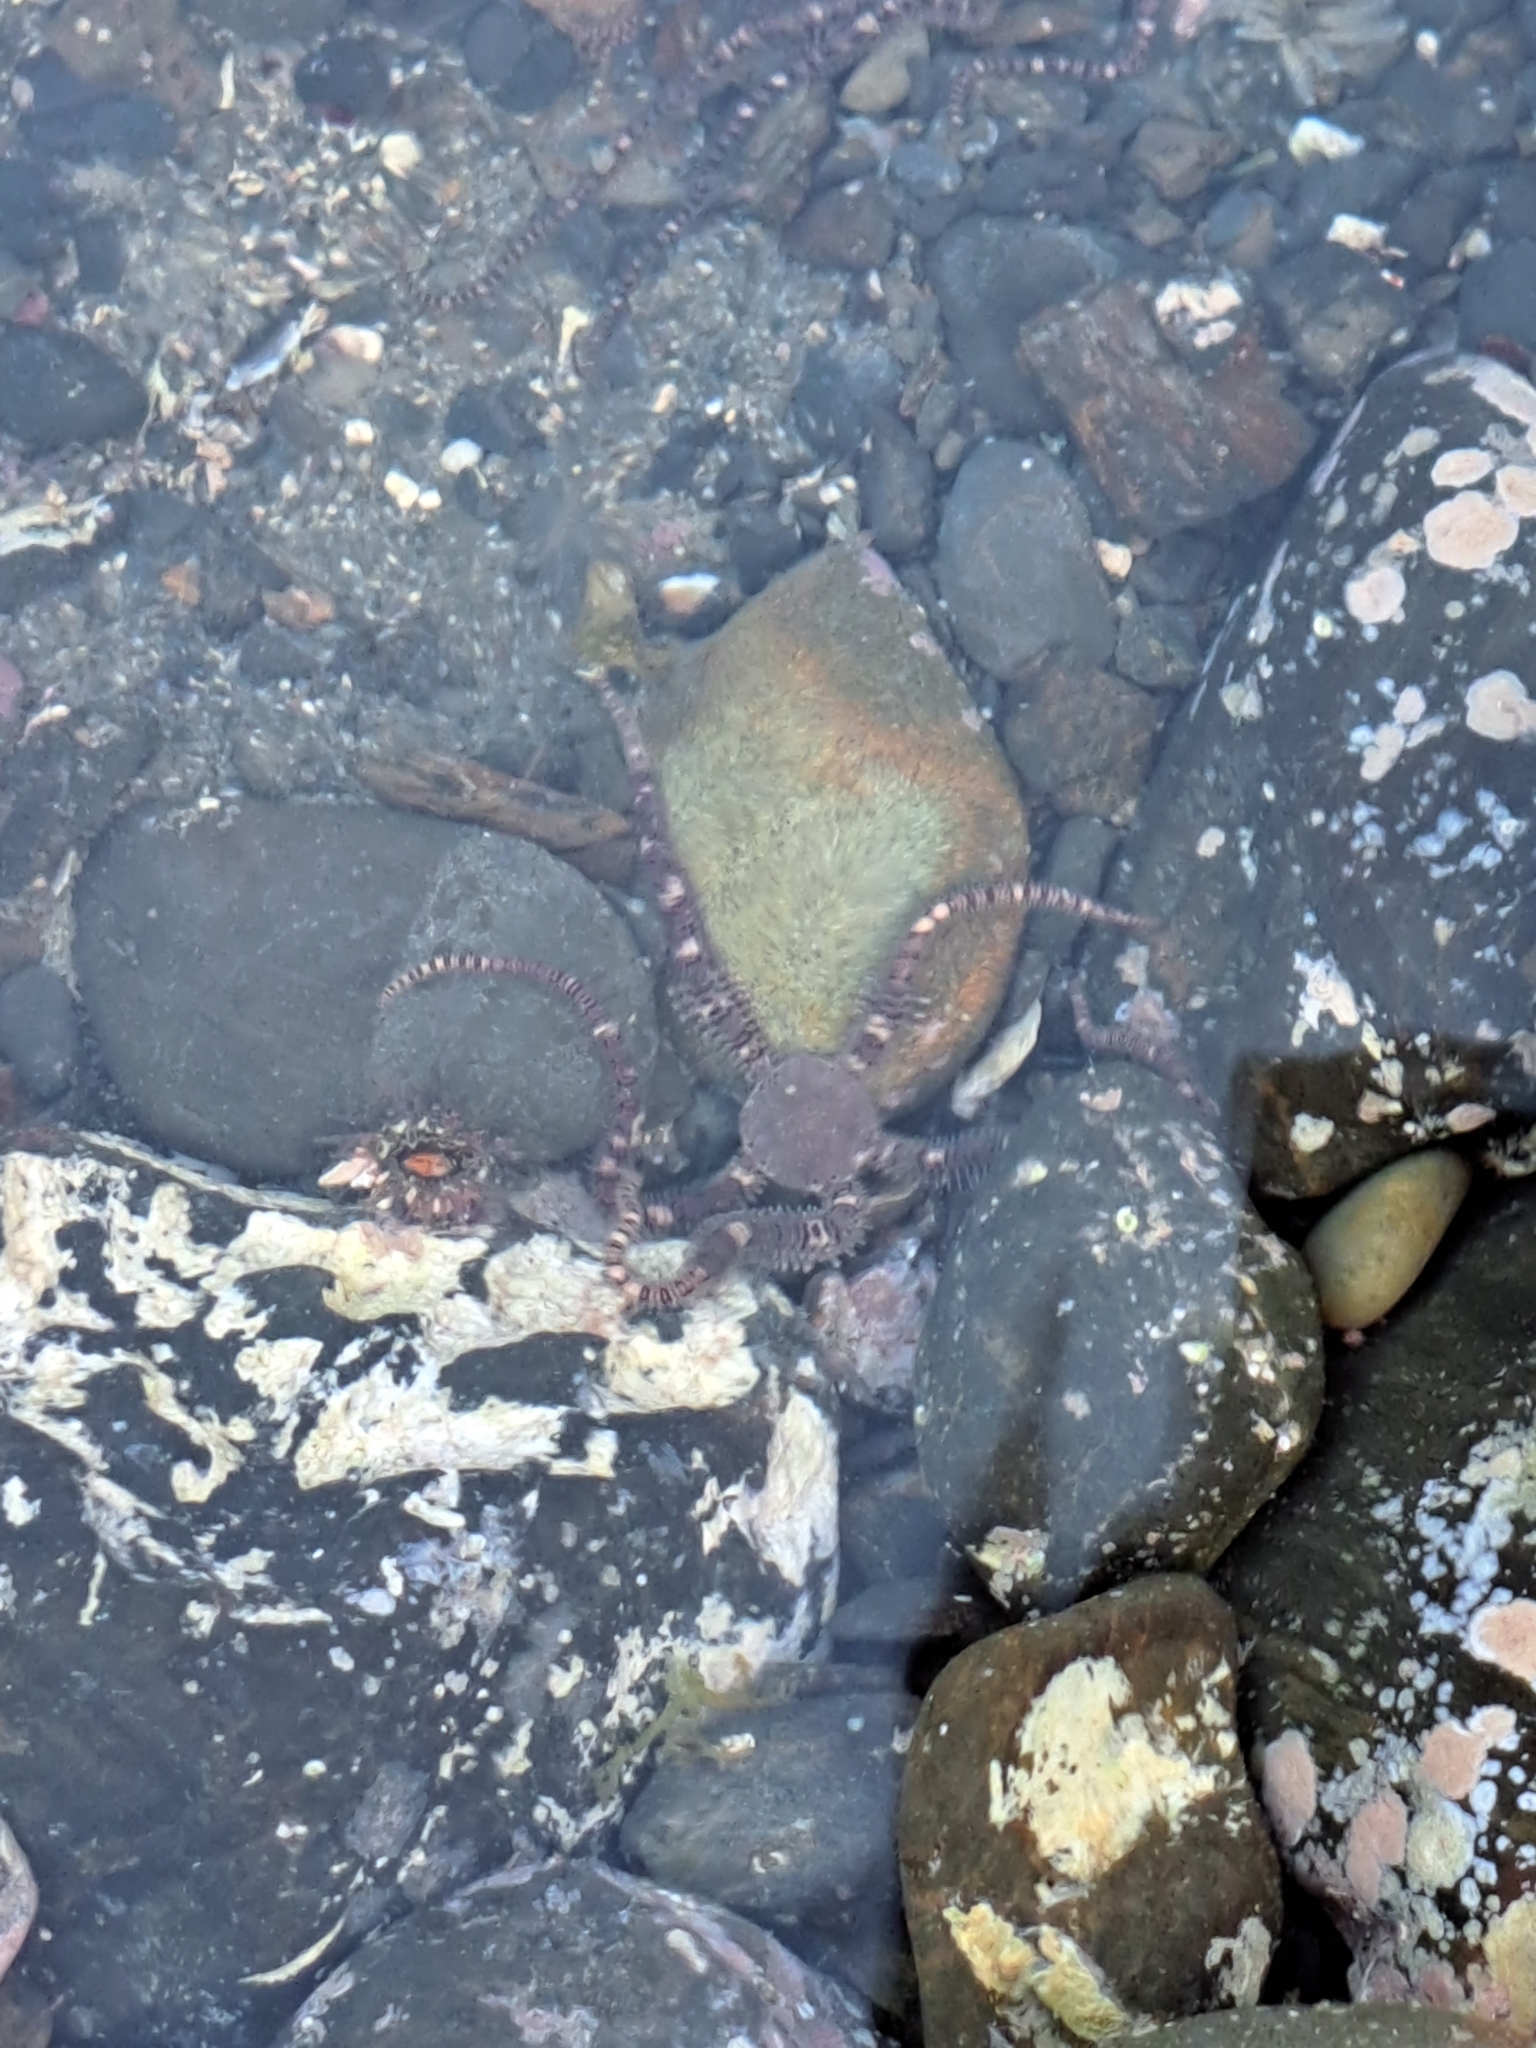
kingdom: Animalia
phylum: Echinodermata
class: Ophiuroidea
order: Amphilepidida
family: Ophionereididae
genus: Ophionereis
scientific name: Ophionereis fasciata
